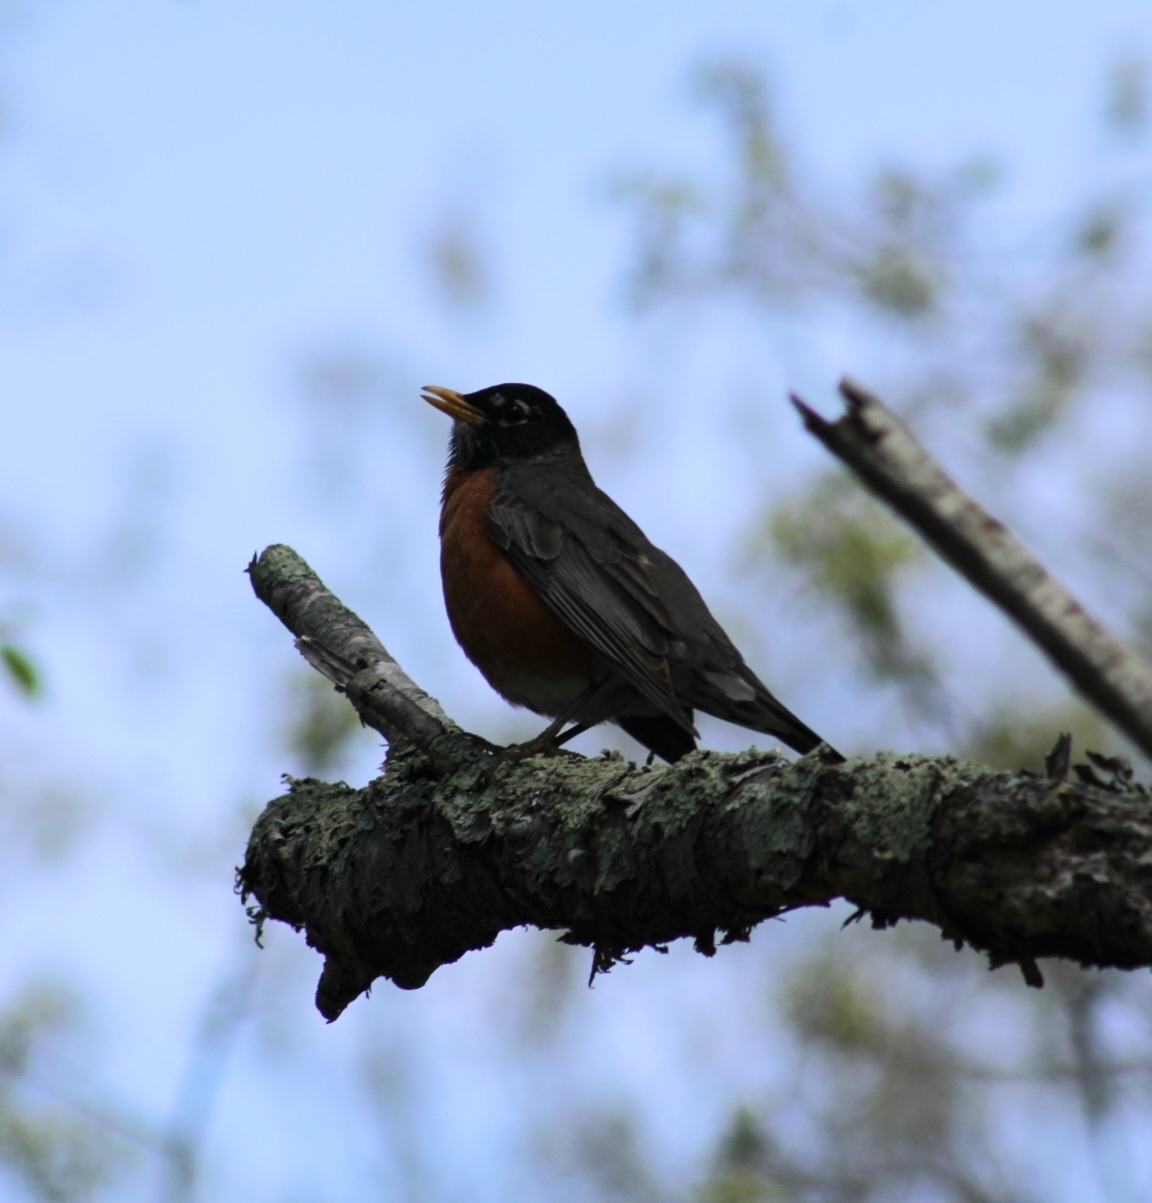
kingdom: Animalia
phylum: Chordata
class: Aves
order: Passeriformes
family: Turdidae
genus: Turdus
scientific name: Turdus migratorius
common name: American robin
